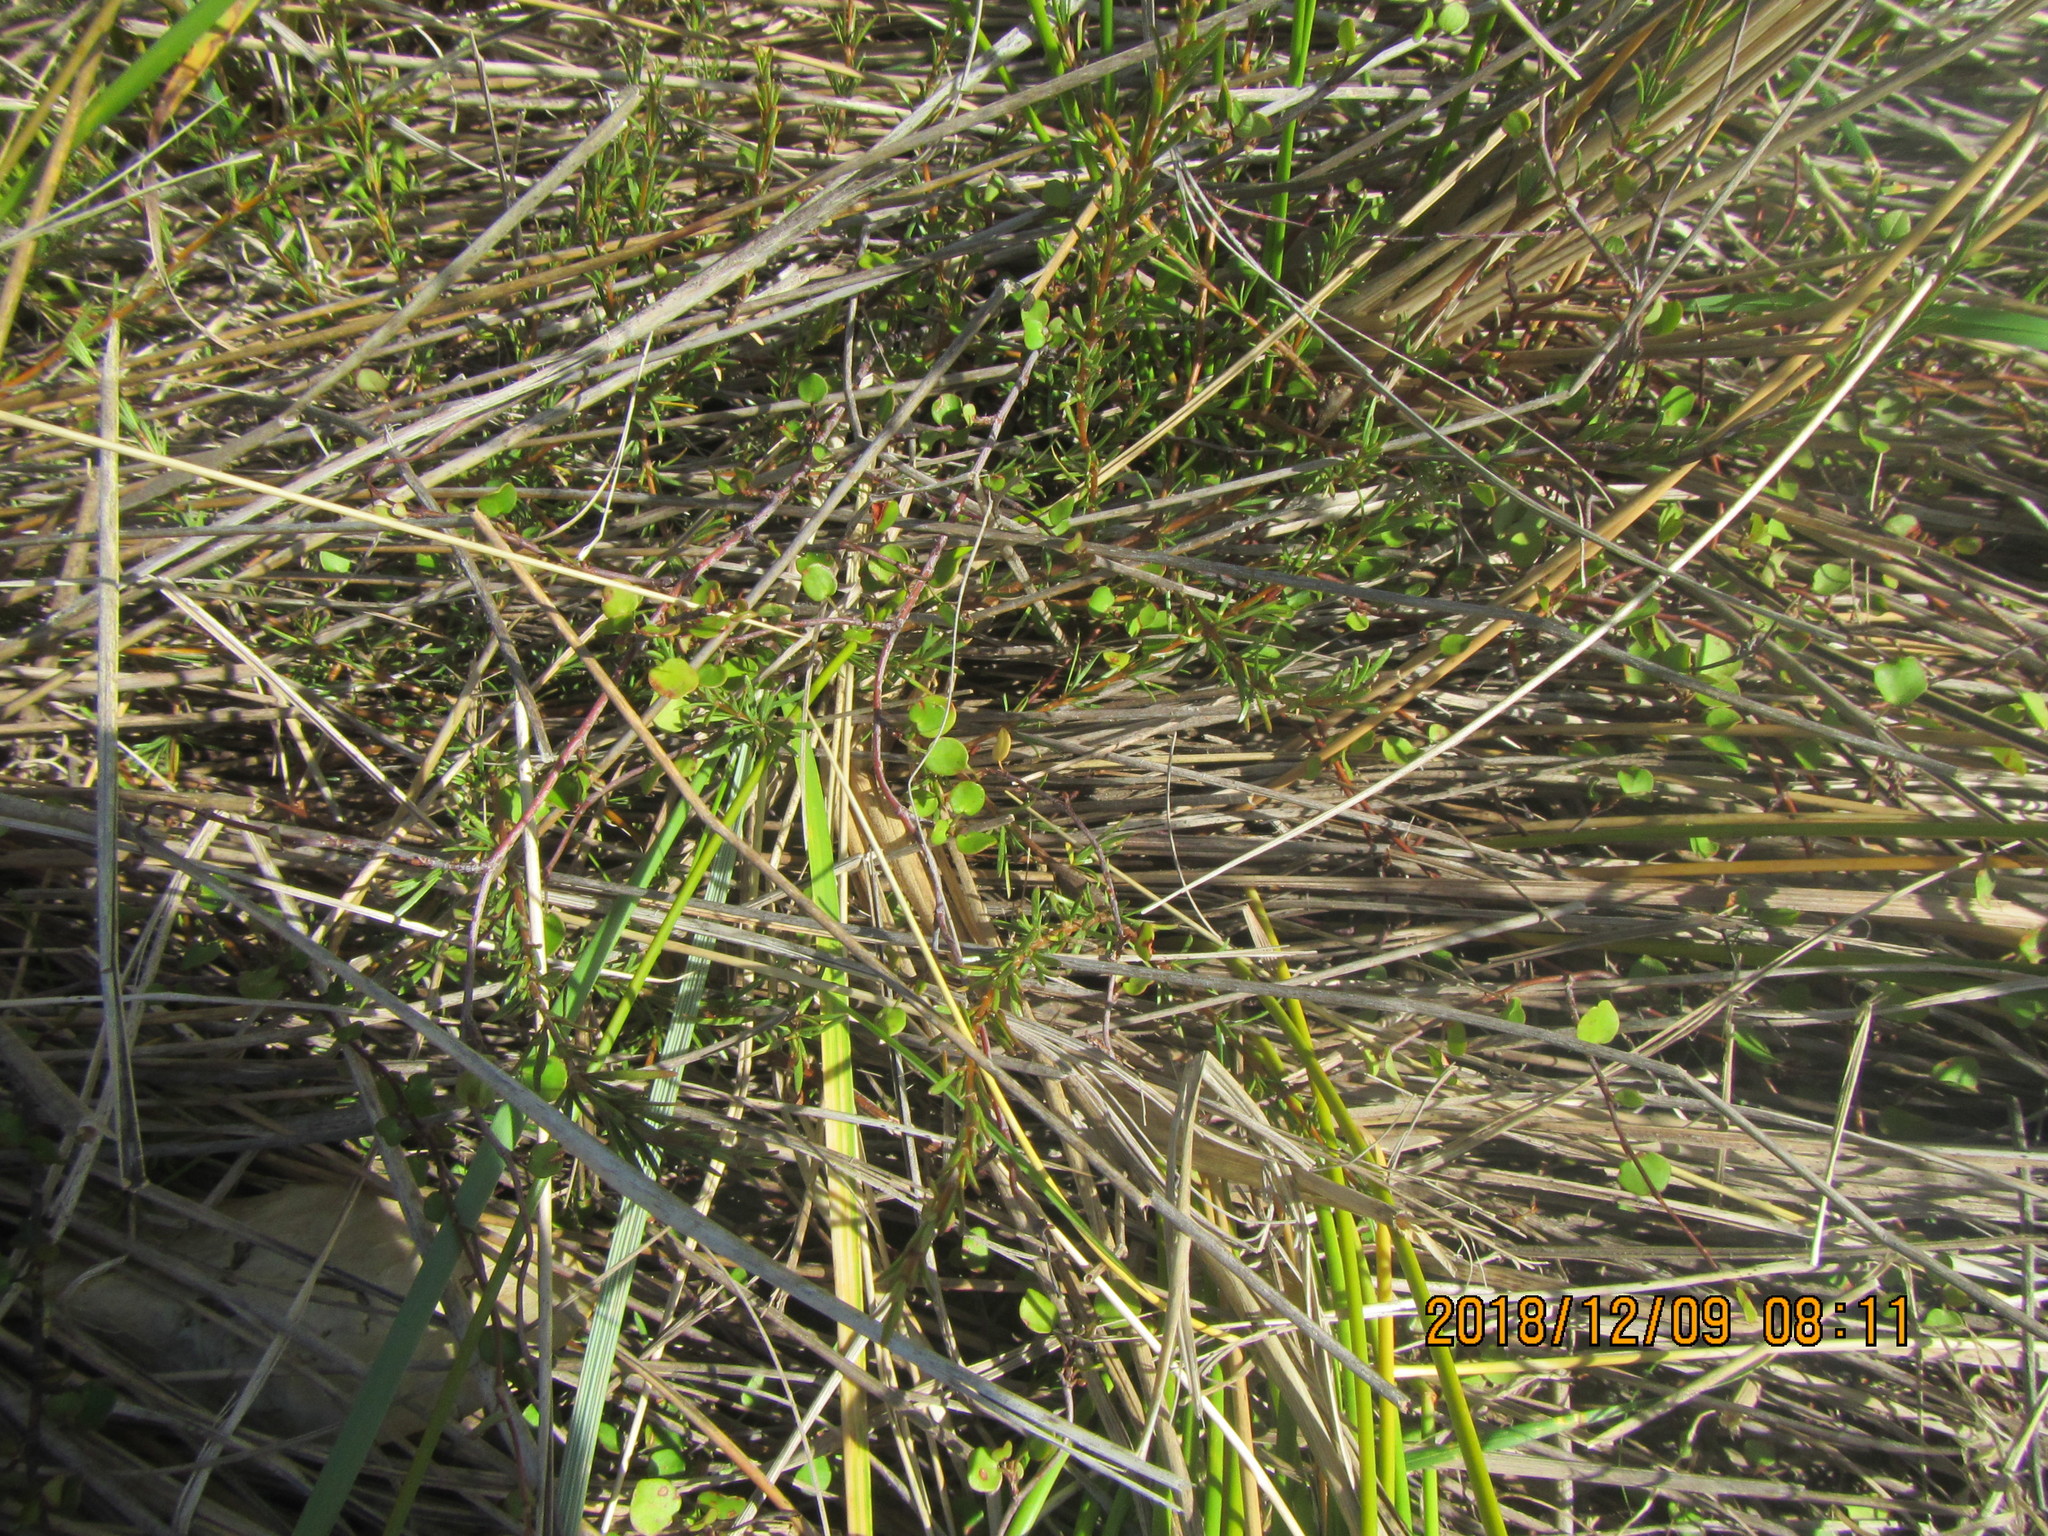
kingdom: Plantae
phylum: Tracheophyta
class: Magnoliopsida
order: Caryophyllales
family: Polygonaceae
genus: Muehlenbeckia
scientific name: Muehlenbeckia complexa
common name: Wireplant
